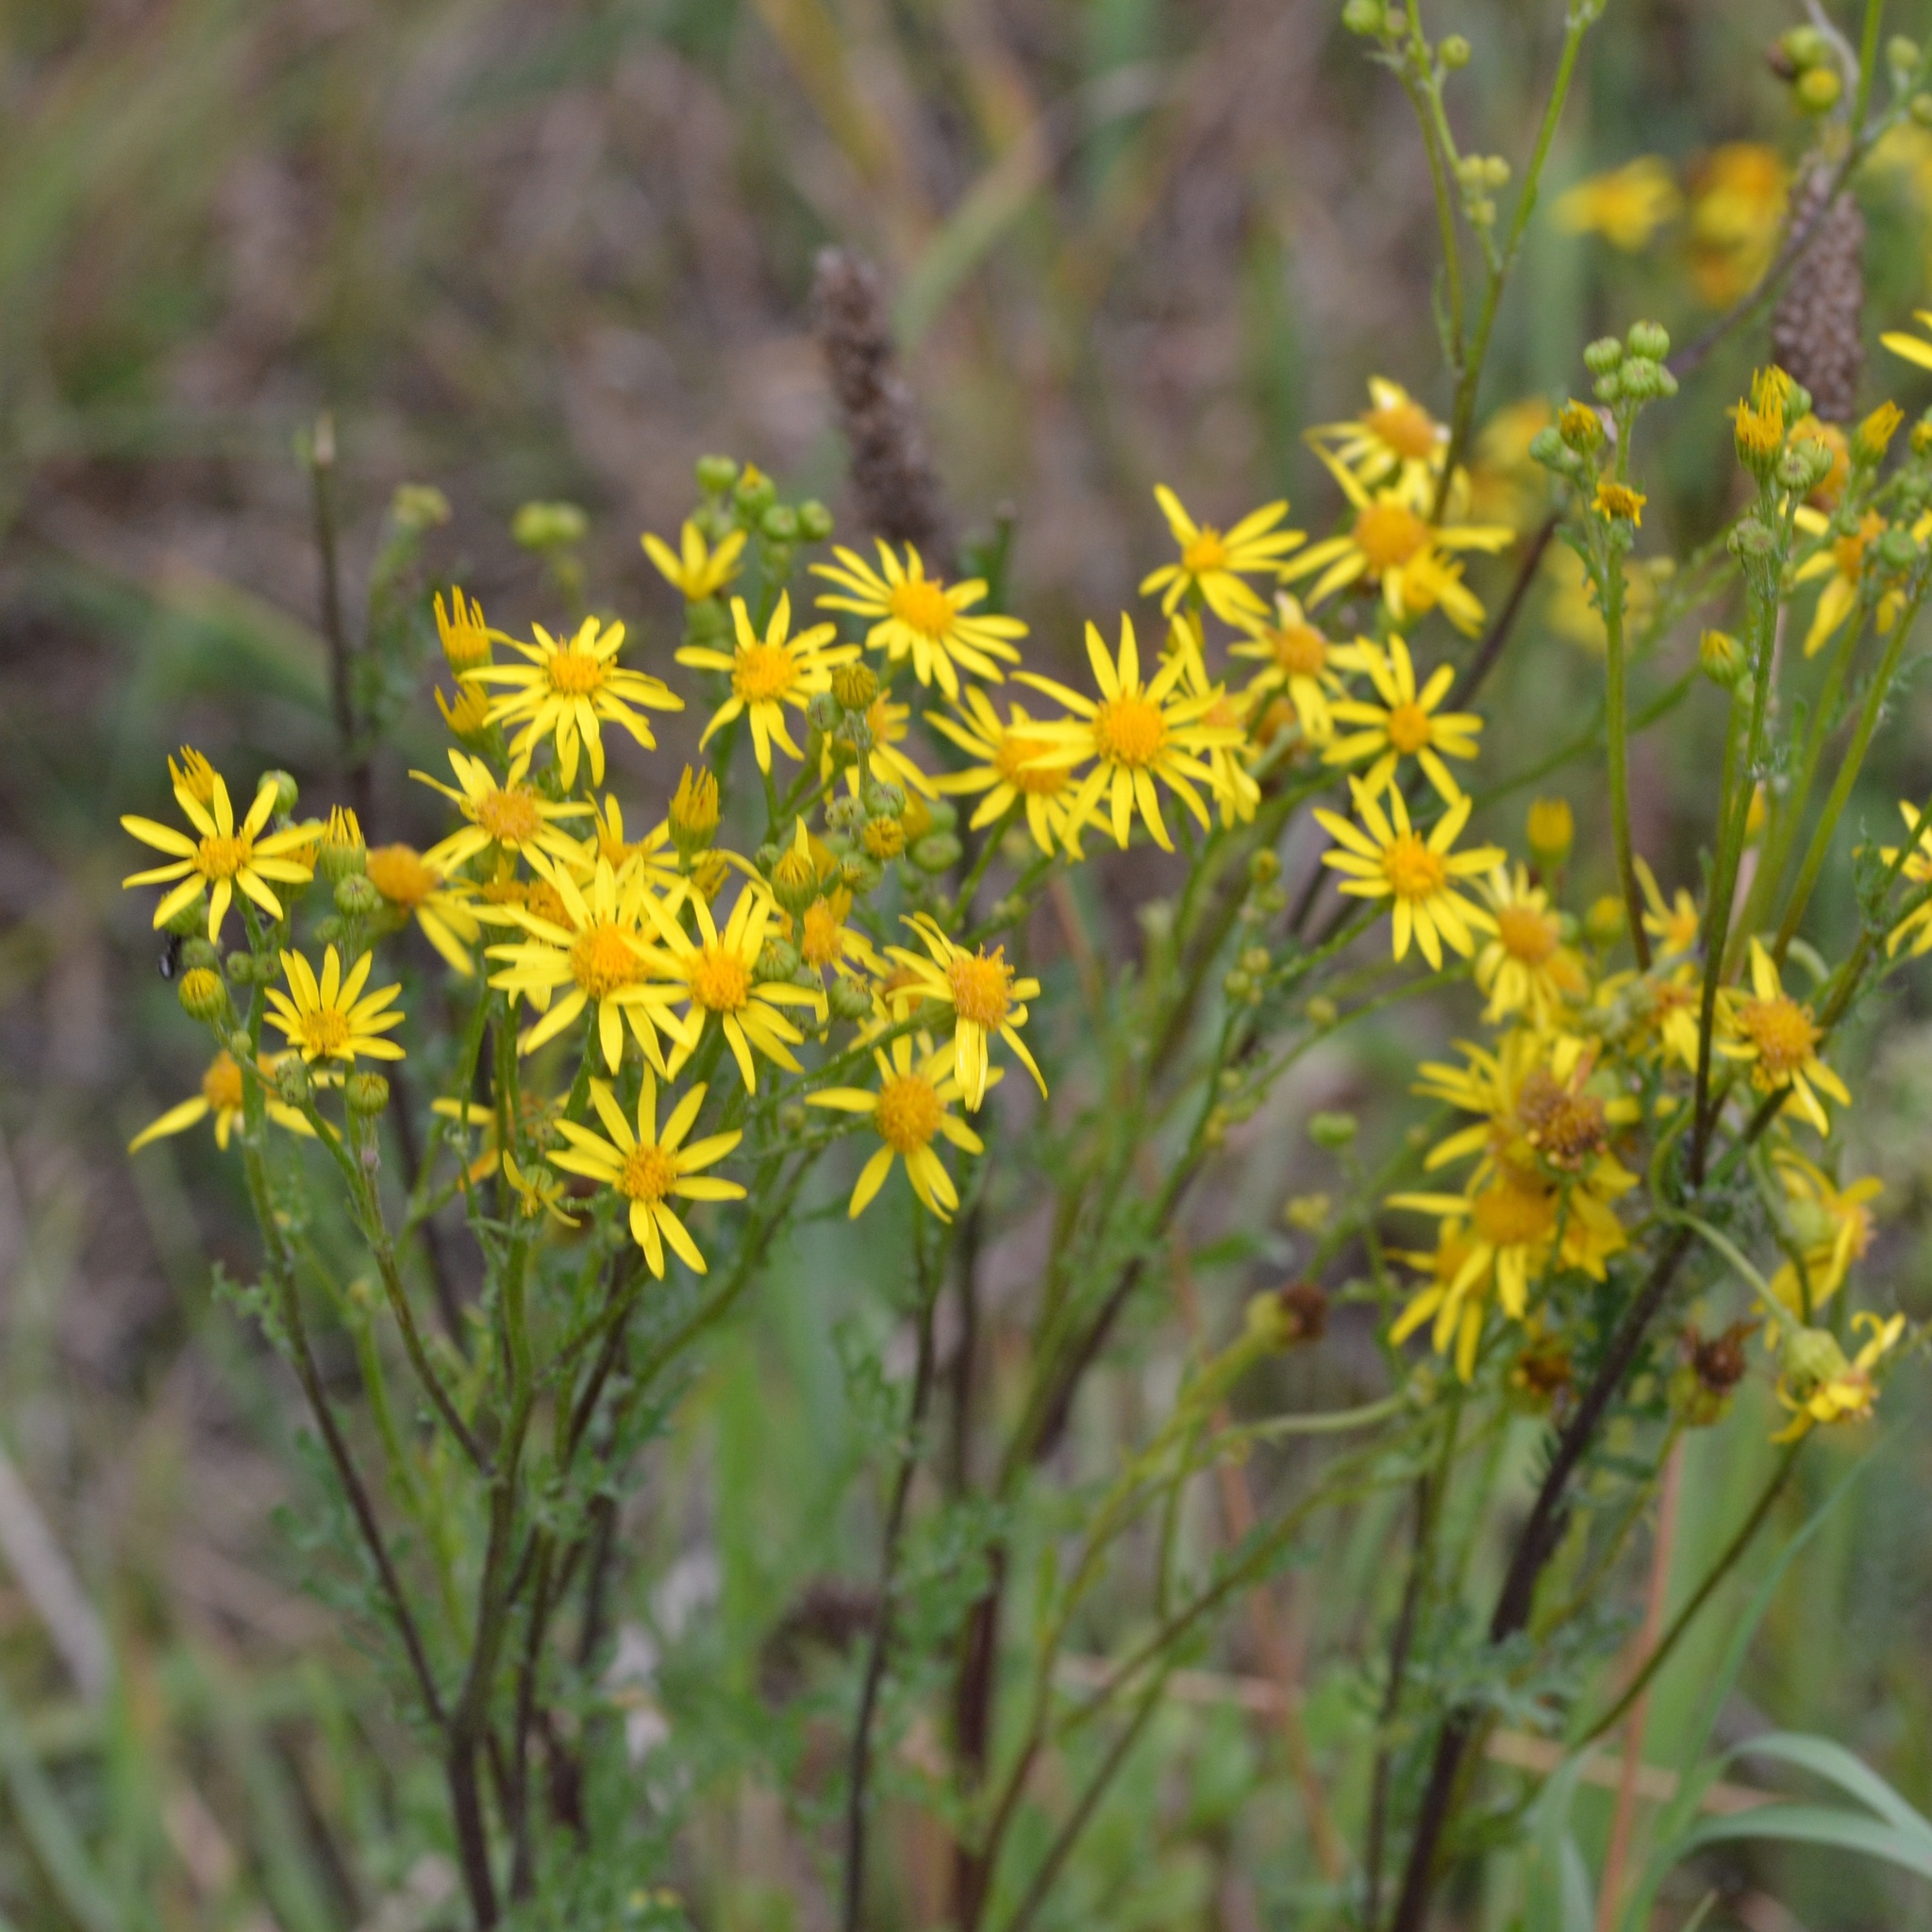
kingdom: Plantae
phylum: Tracheophyta
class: Magnoliopsida
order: Asterales
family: Asteraceae
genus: Jacobaea
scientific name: Jacobaea vulgaris
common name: Stinking willie
